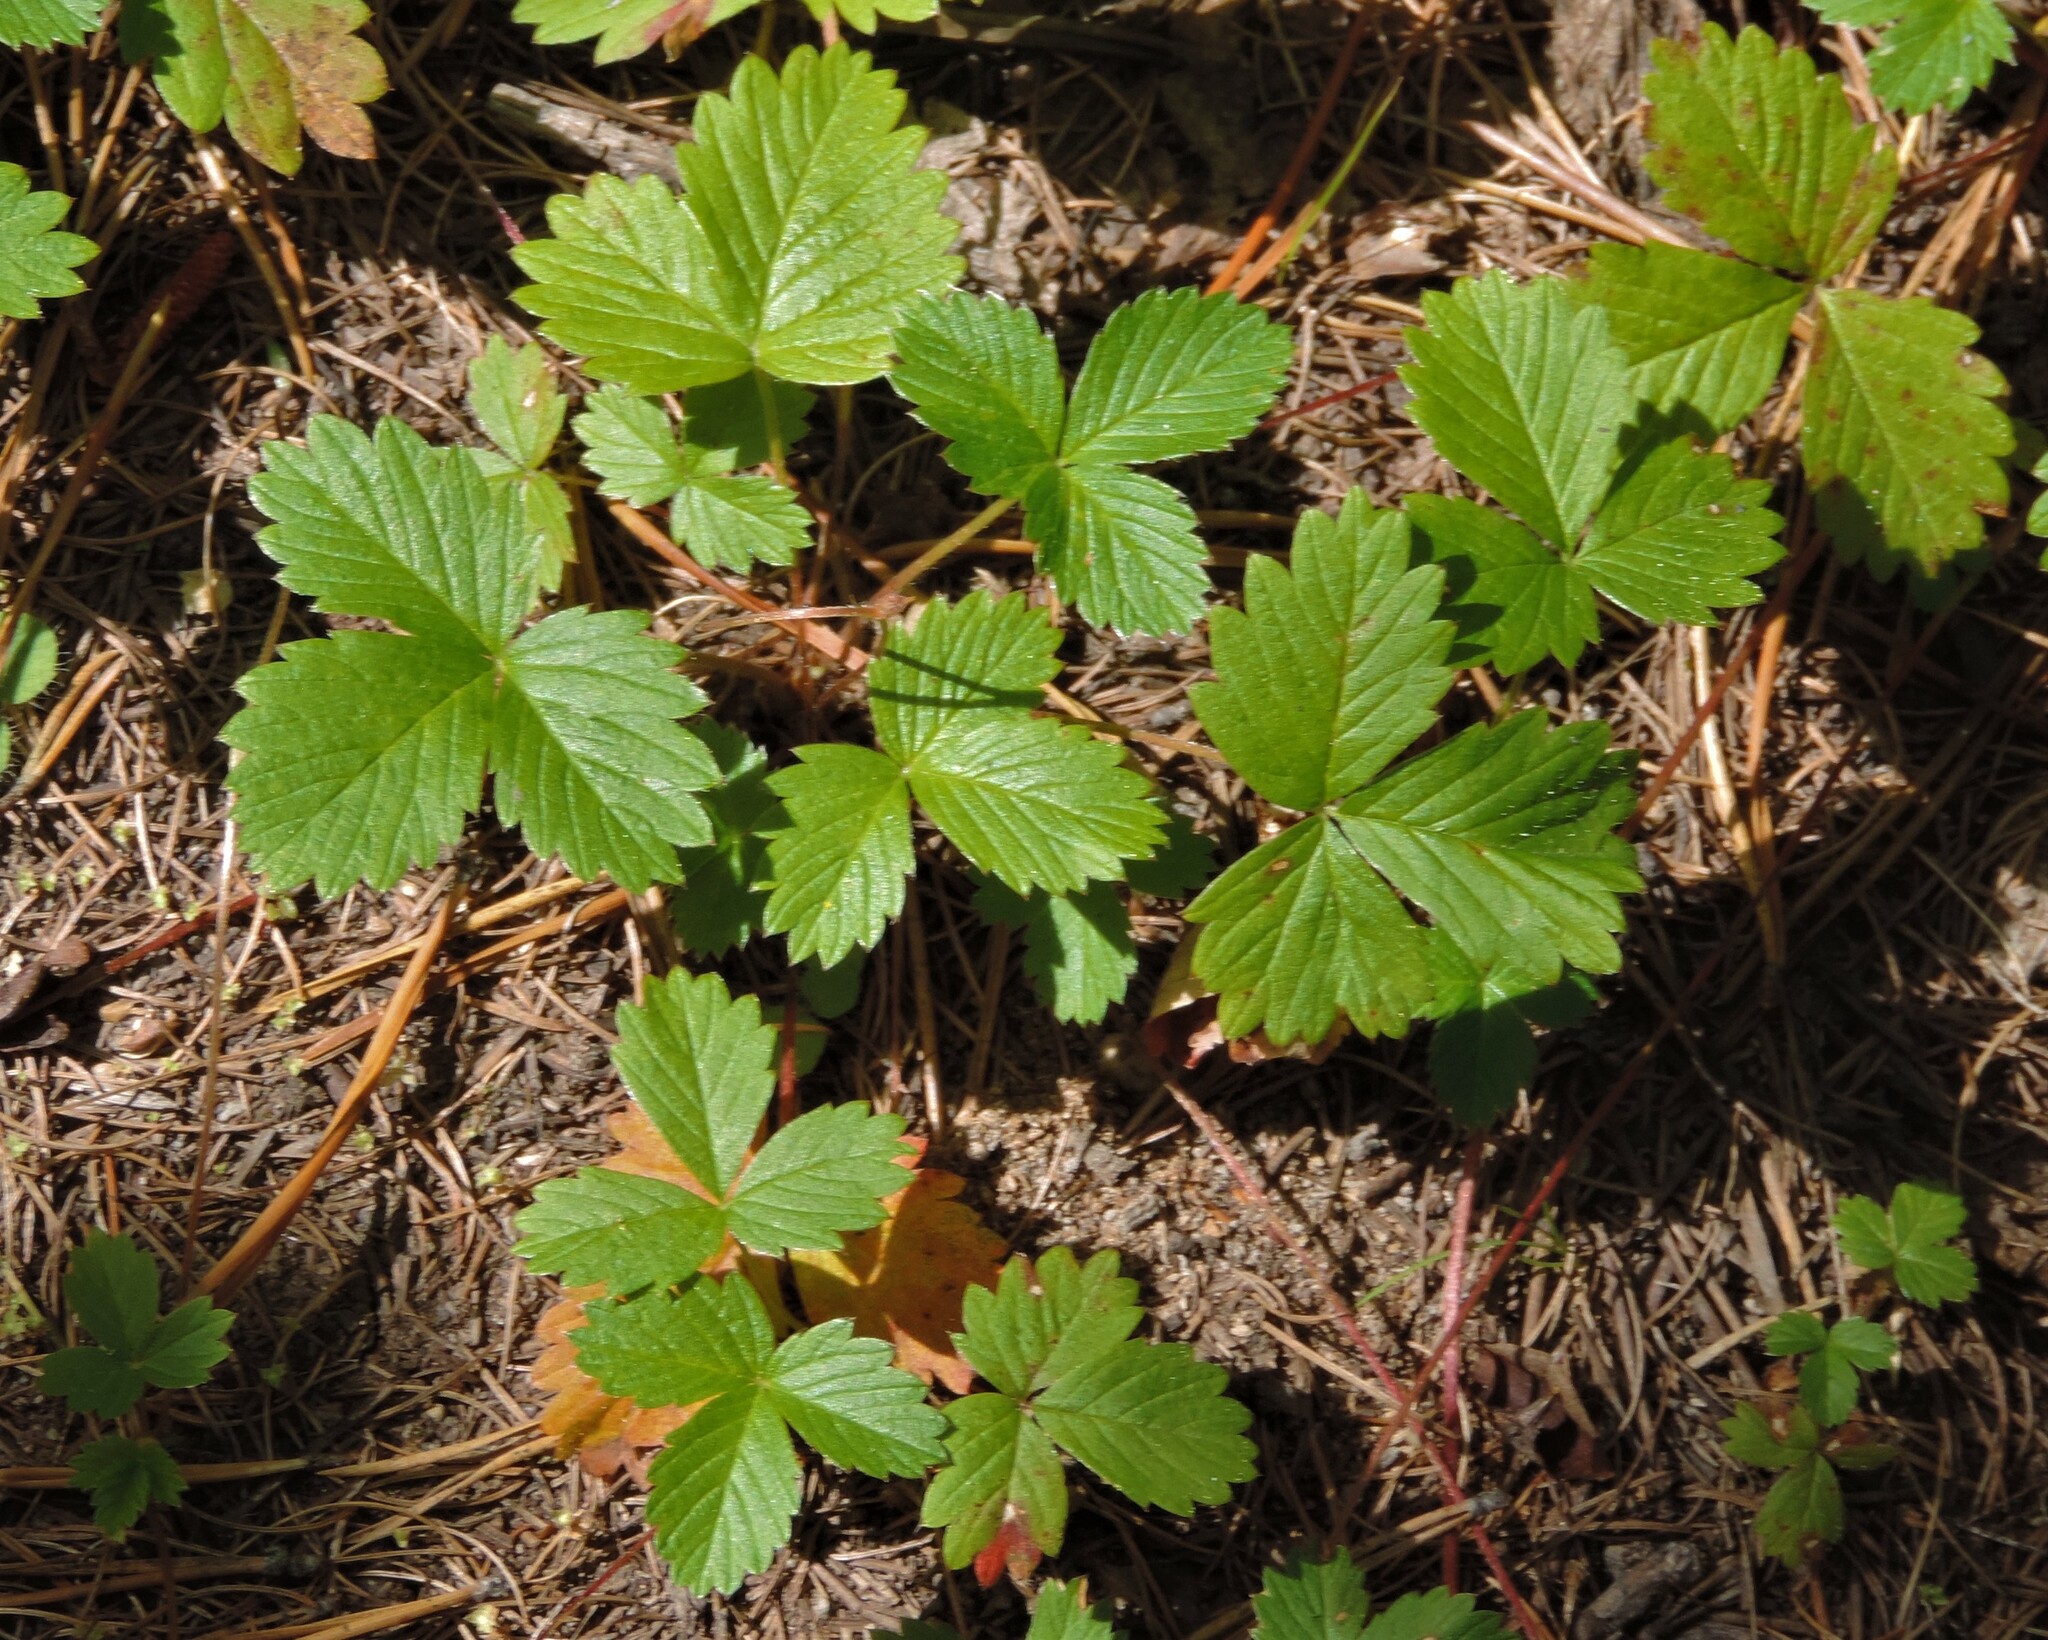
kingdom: Plantae
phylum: Tracheophyta
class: Magnoliopsida
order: Rosales
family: Rosaceae
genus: Fragaria
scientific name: Fragaria vesca
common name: Wild strawberry
